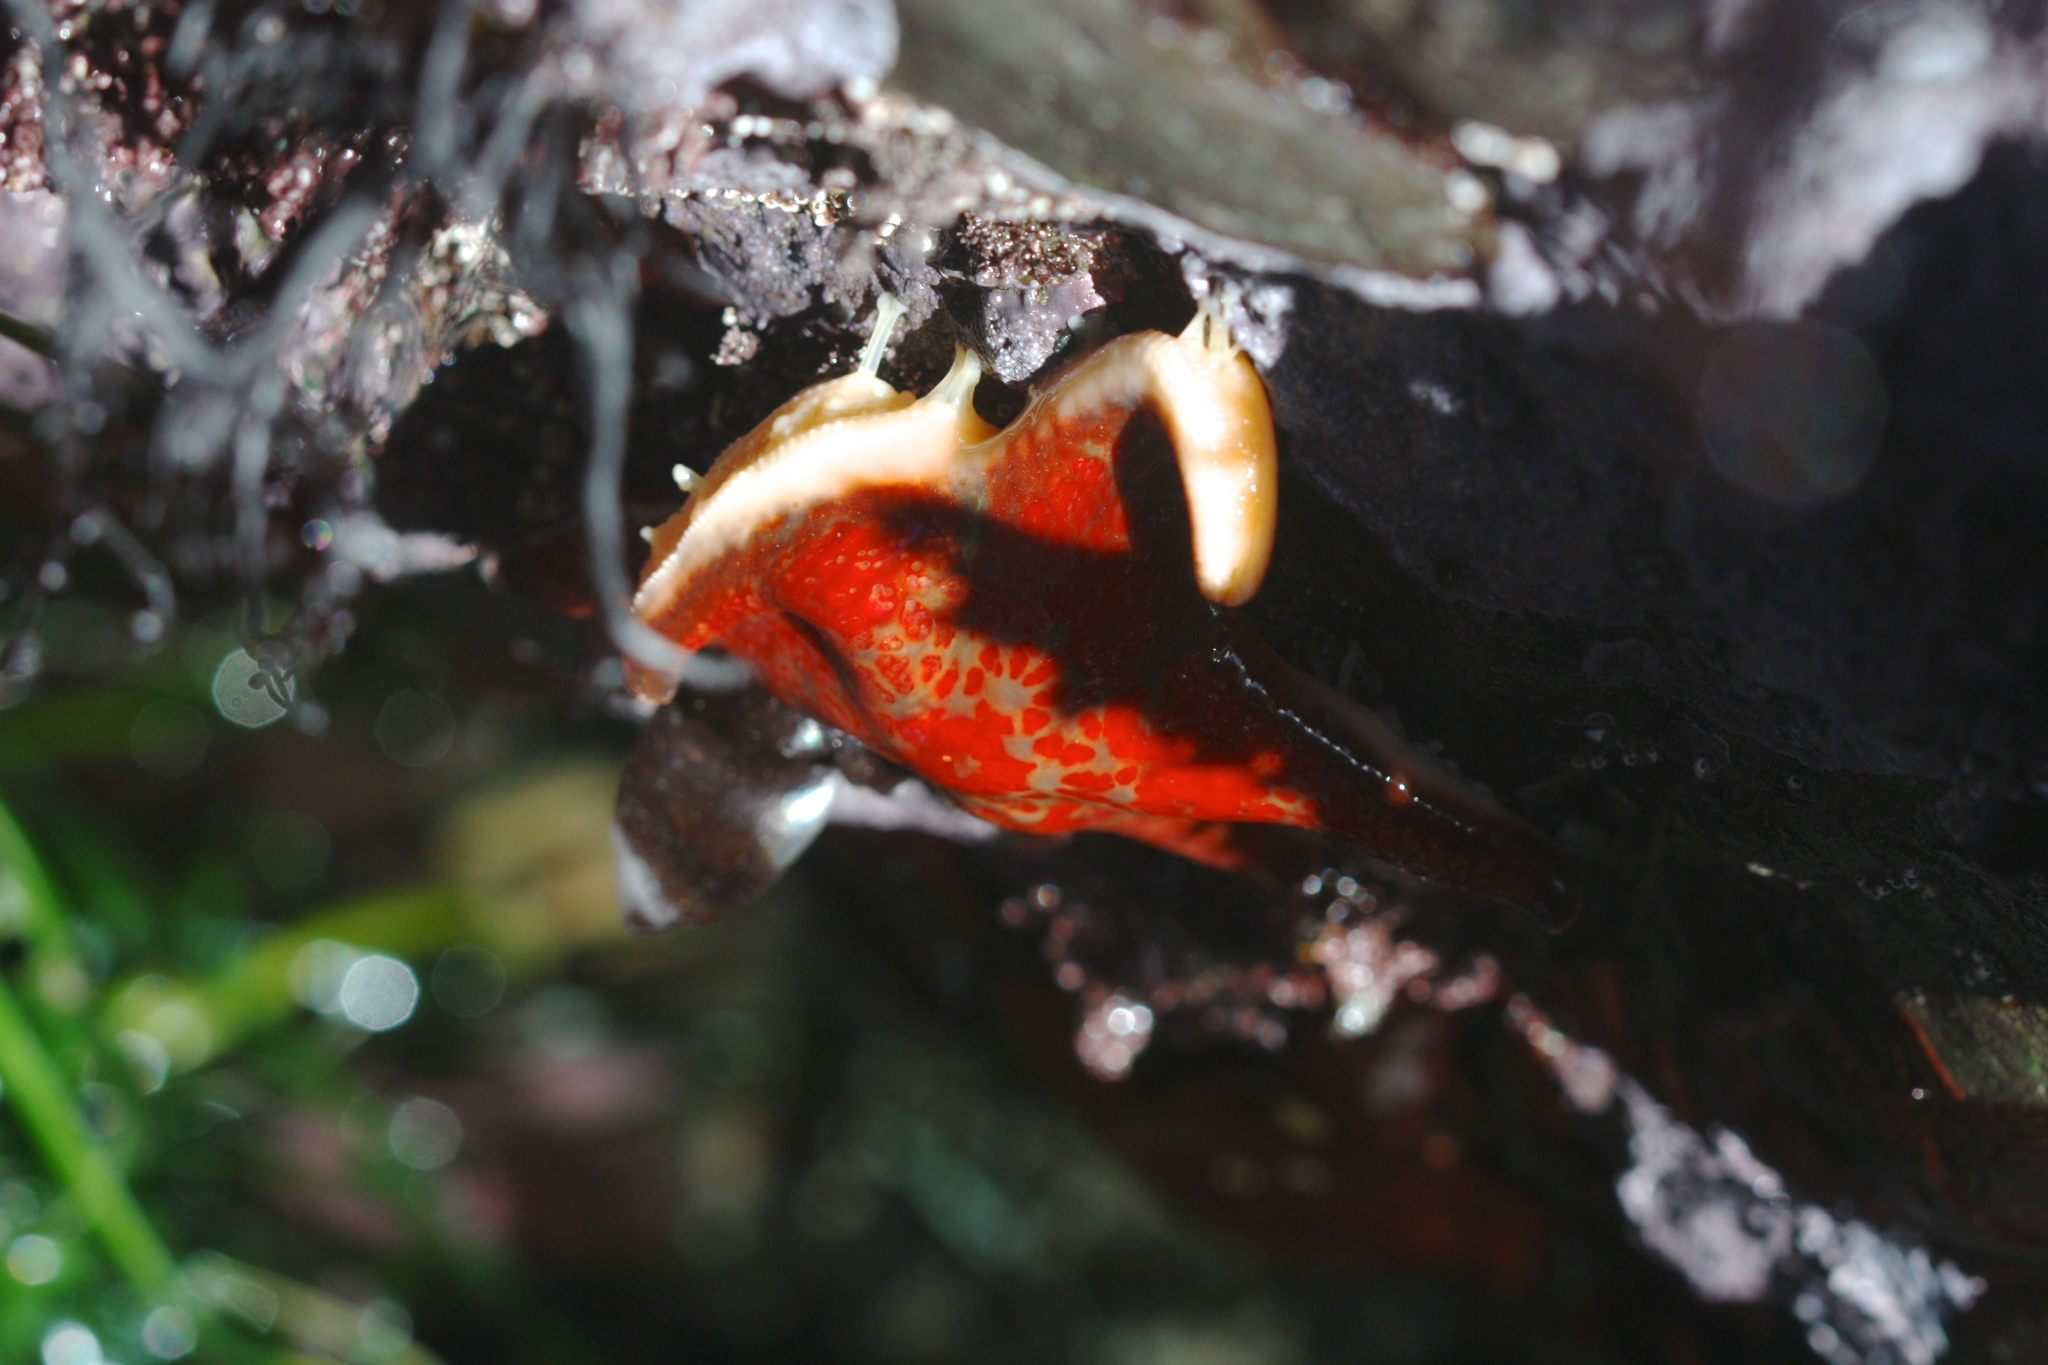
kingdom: Animalia
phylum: Echinodermata
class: Asteroidea
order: Valvatida
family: Asteropseidae
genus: Dermasterias
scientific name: Dermasterias imbricata
